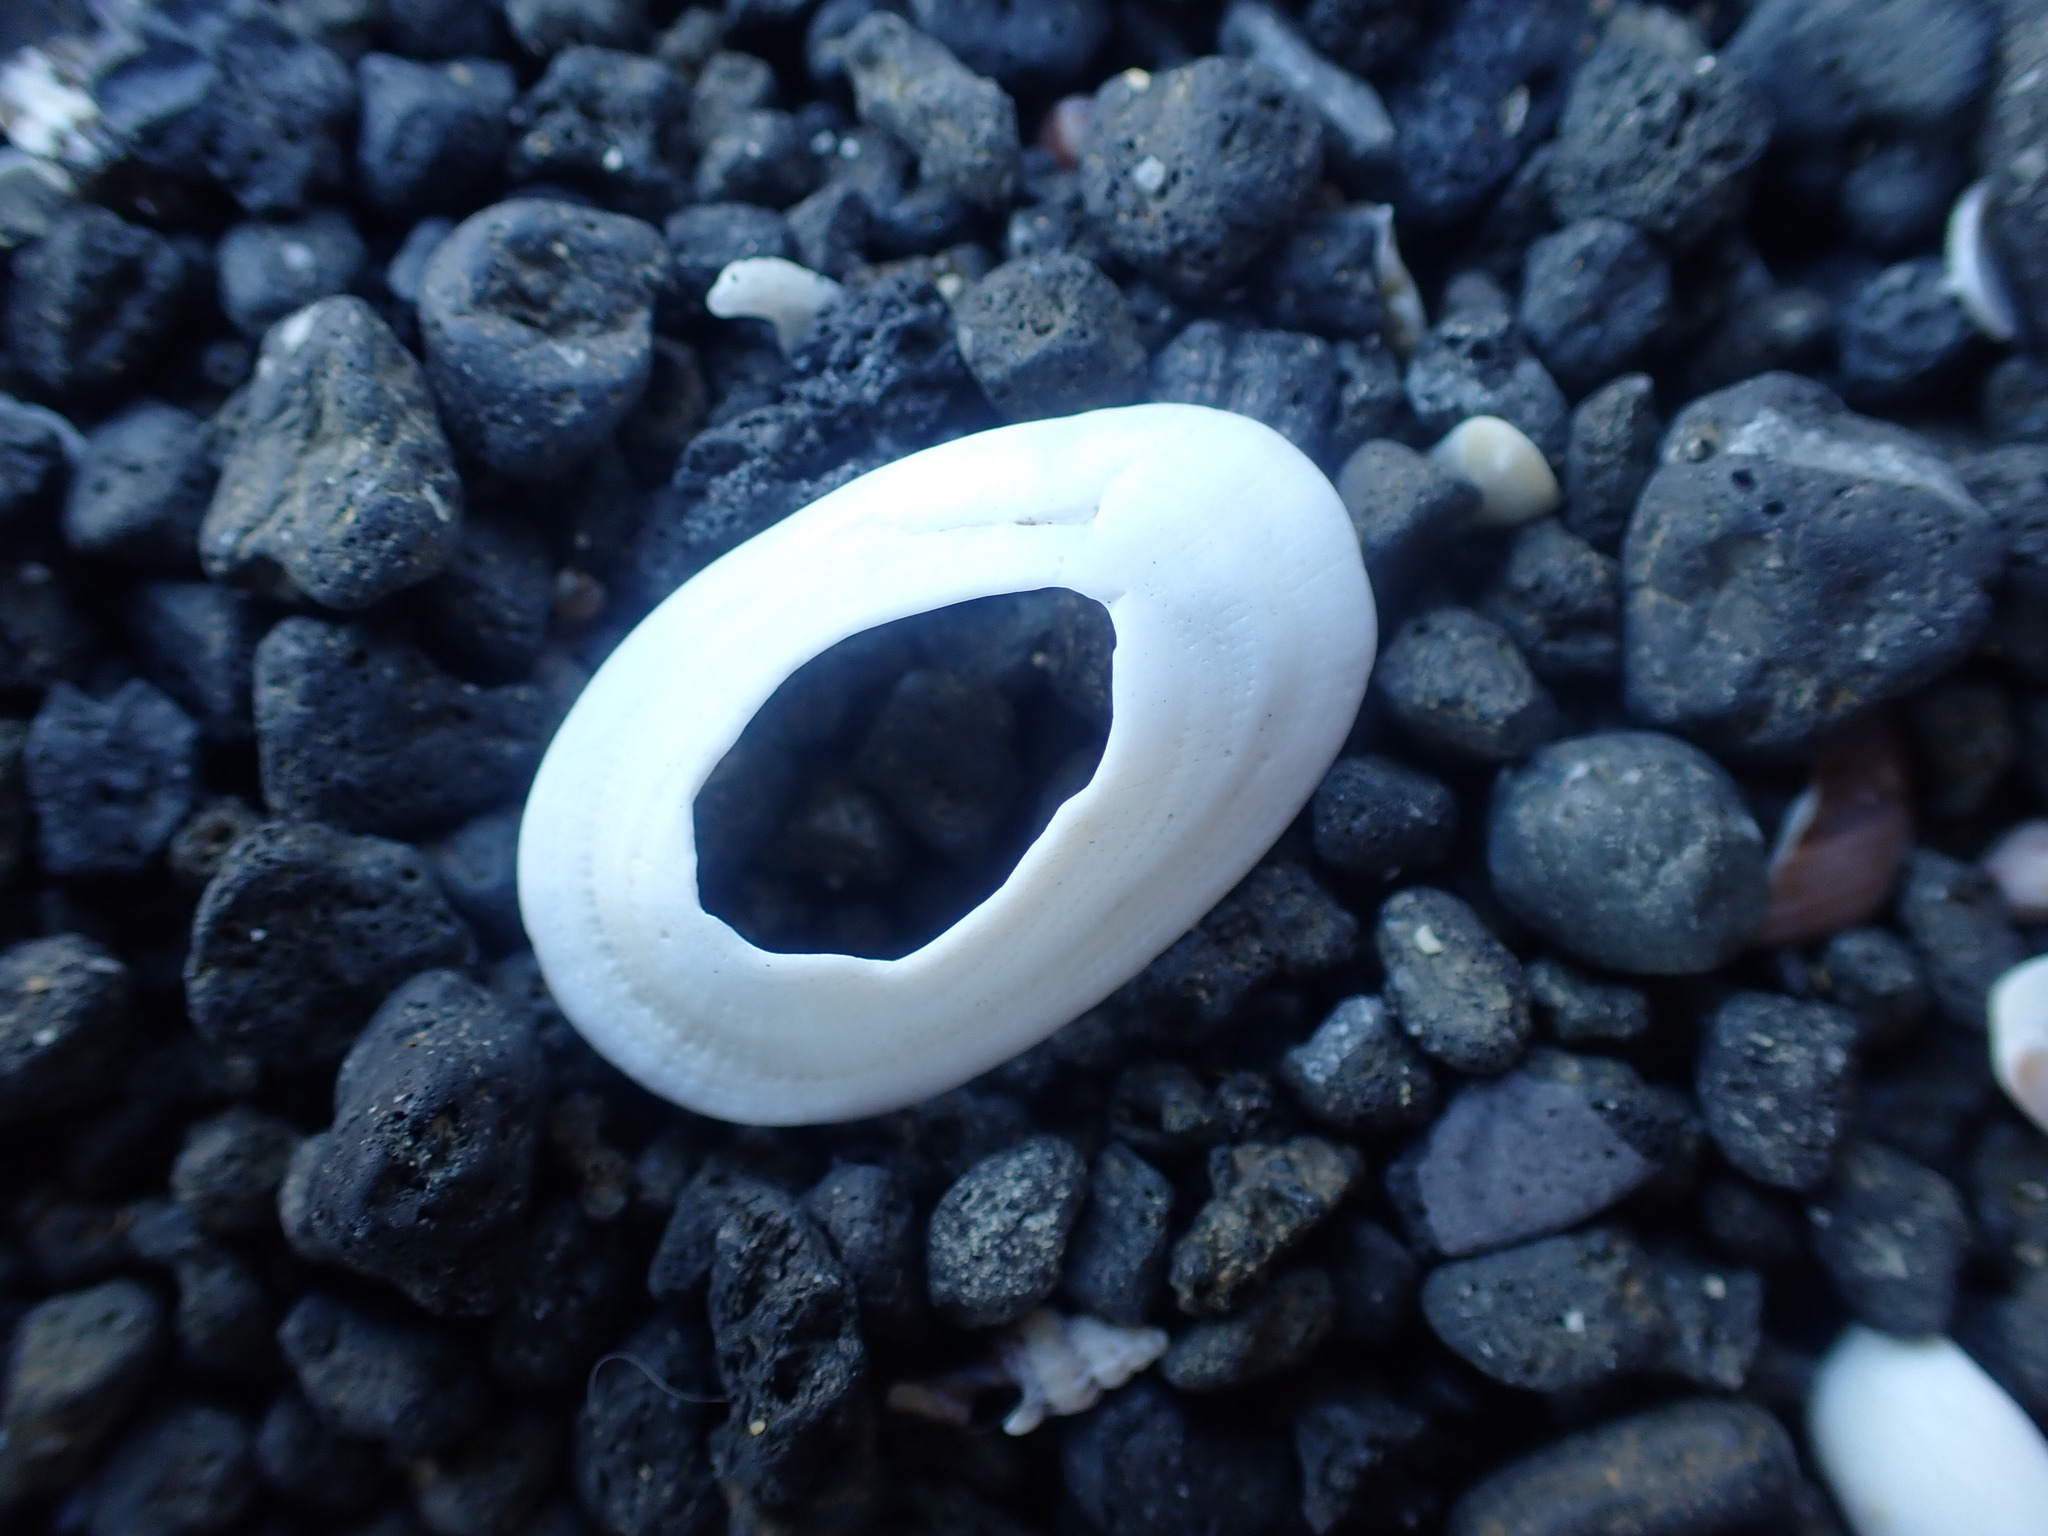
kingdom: Animalia
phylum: Mollusca
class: Gastropoda
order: Lepetellida
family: Fissurellidae
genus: Tugali
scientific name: Tugali elegans
